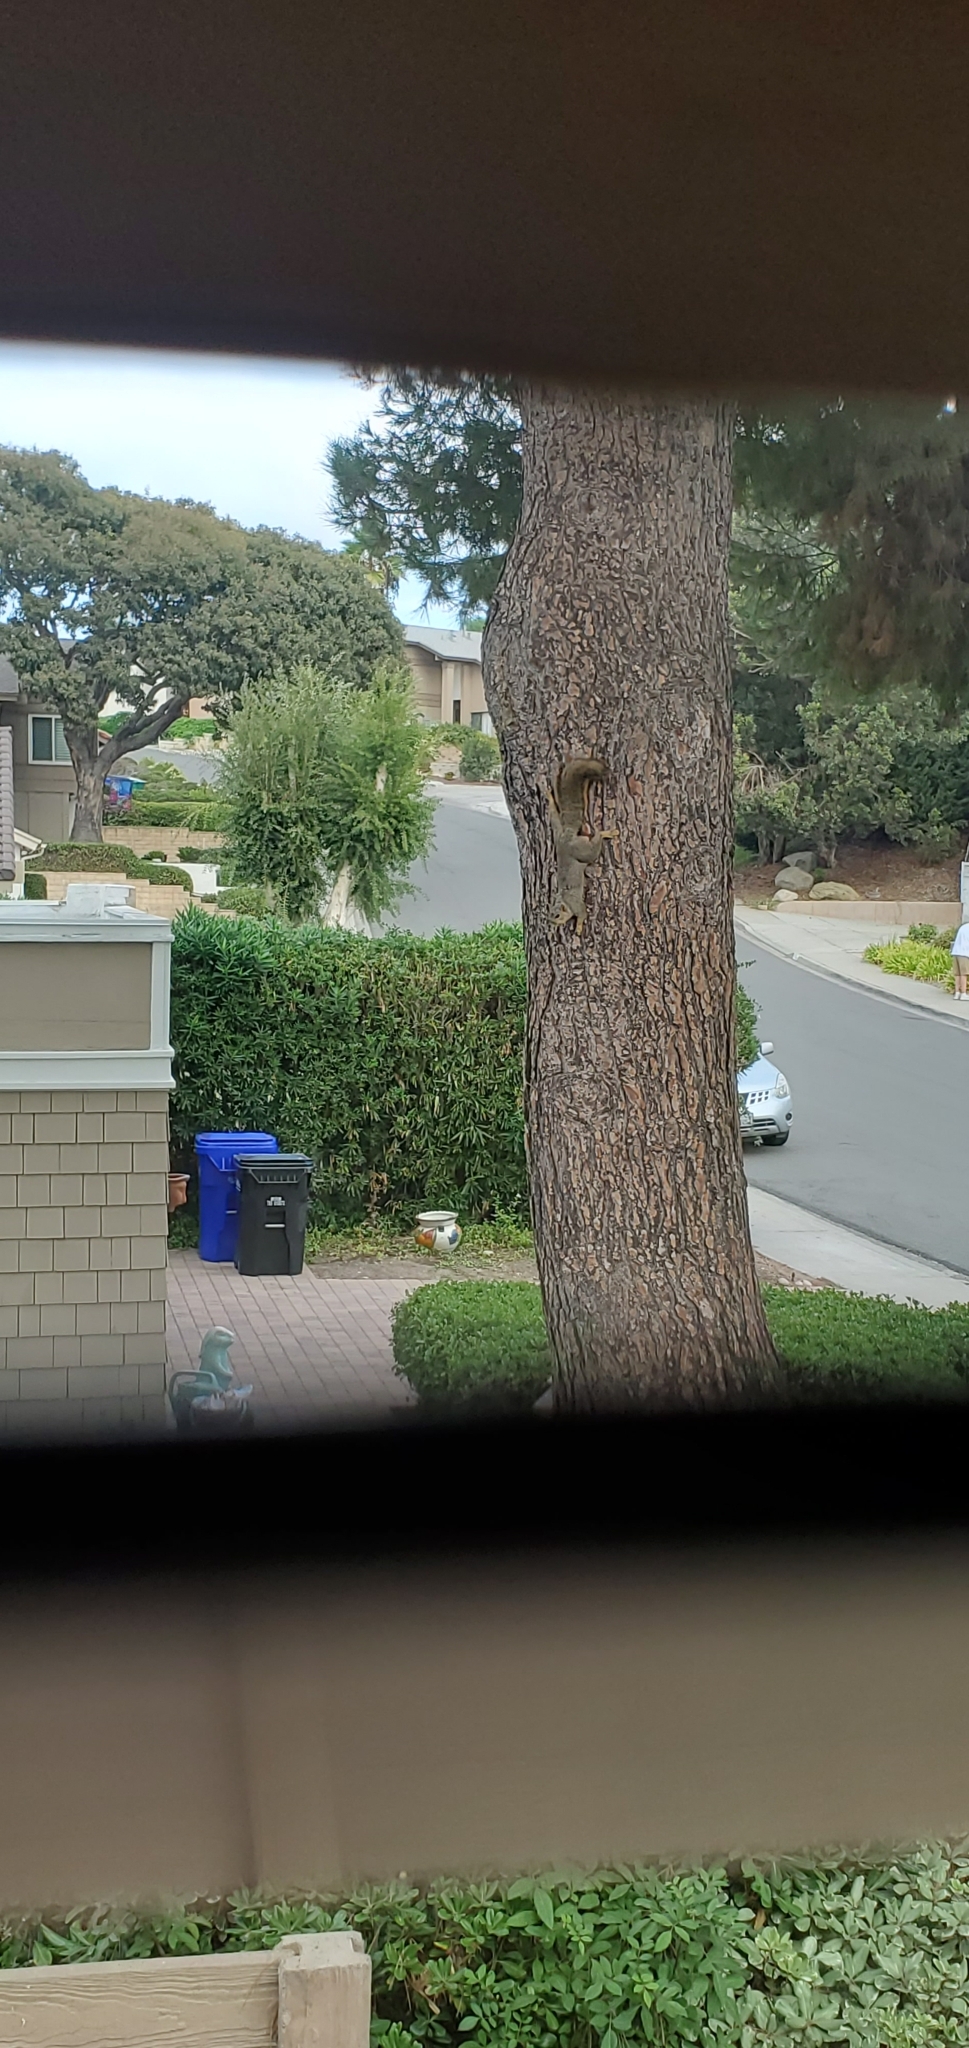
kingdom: Animalia
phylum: Chordata
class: Mammalia
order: Rodentia
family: Sciuridae
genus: Sciurus
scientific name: Sciurus niger
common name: Fox squirrel
